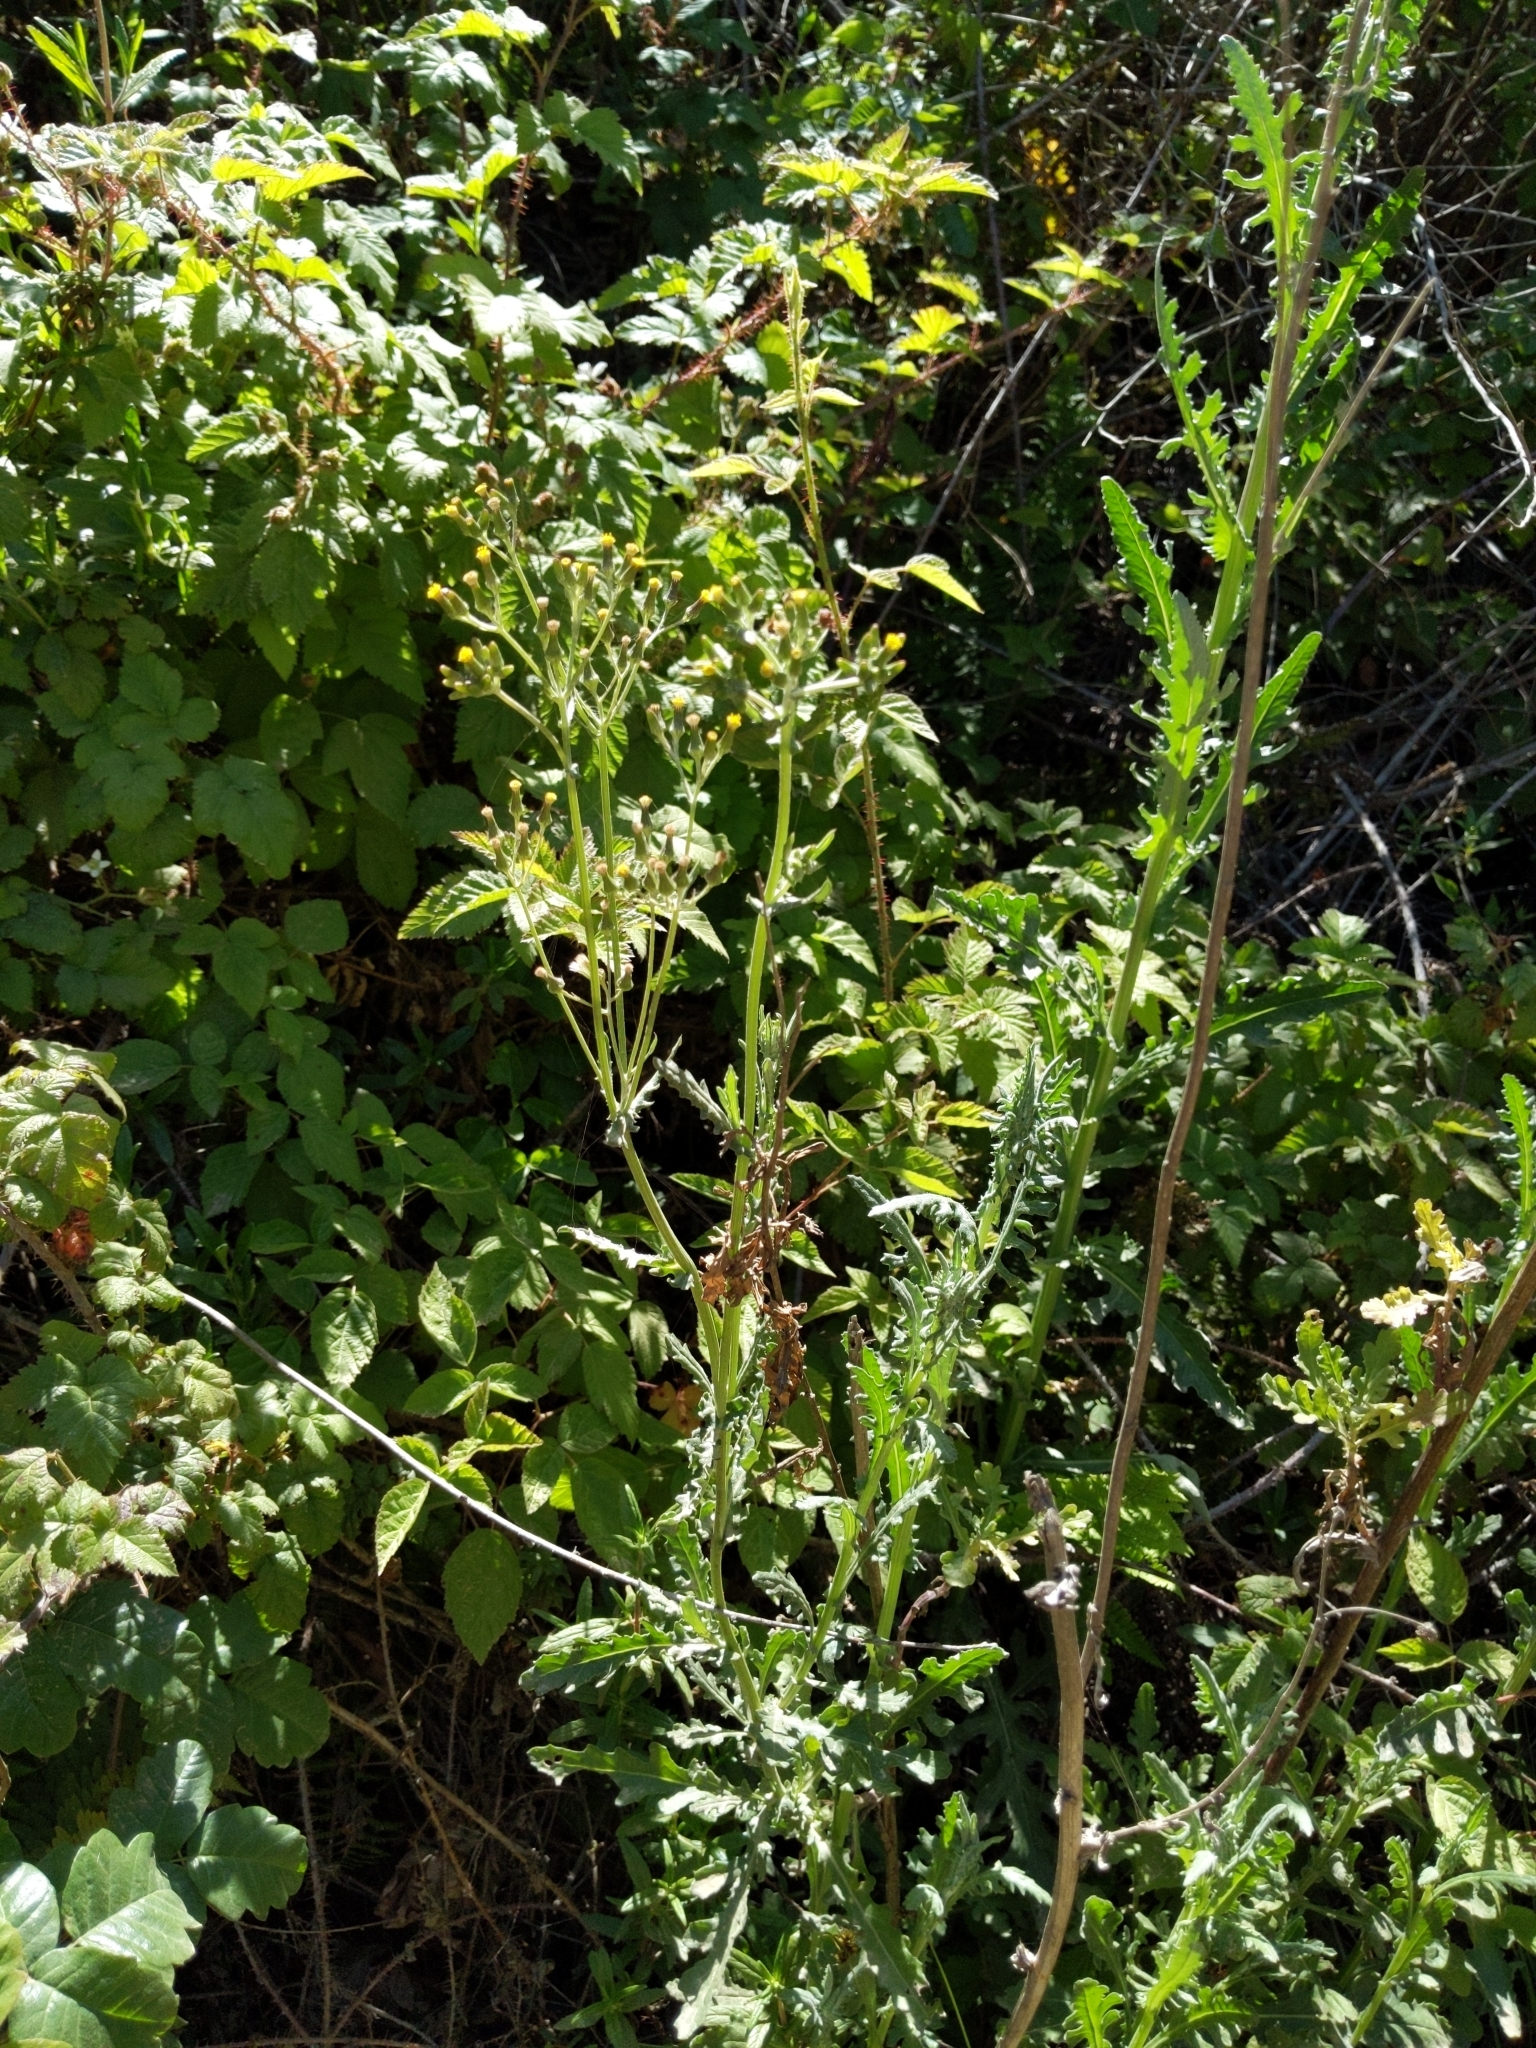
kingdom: Plantae
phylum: Tracheophyta
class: Magnoliopsida
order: Asterales
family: Asteraceae
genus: Senecio
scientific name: Senecio glomeratus
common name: Cutleaf burnweed
